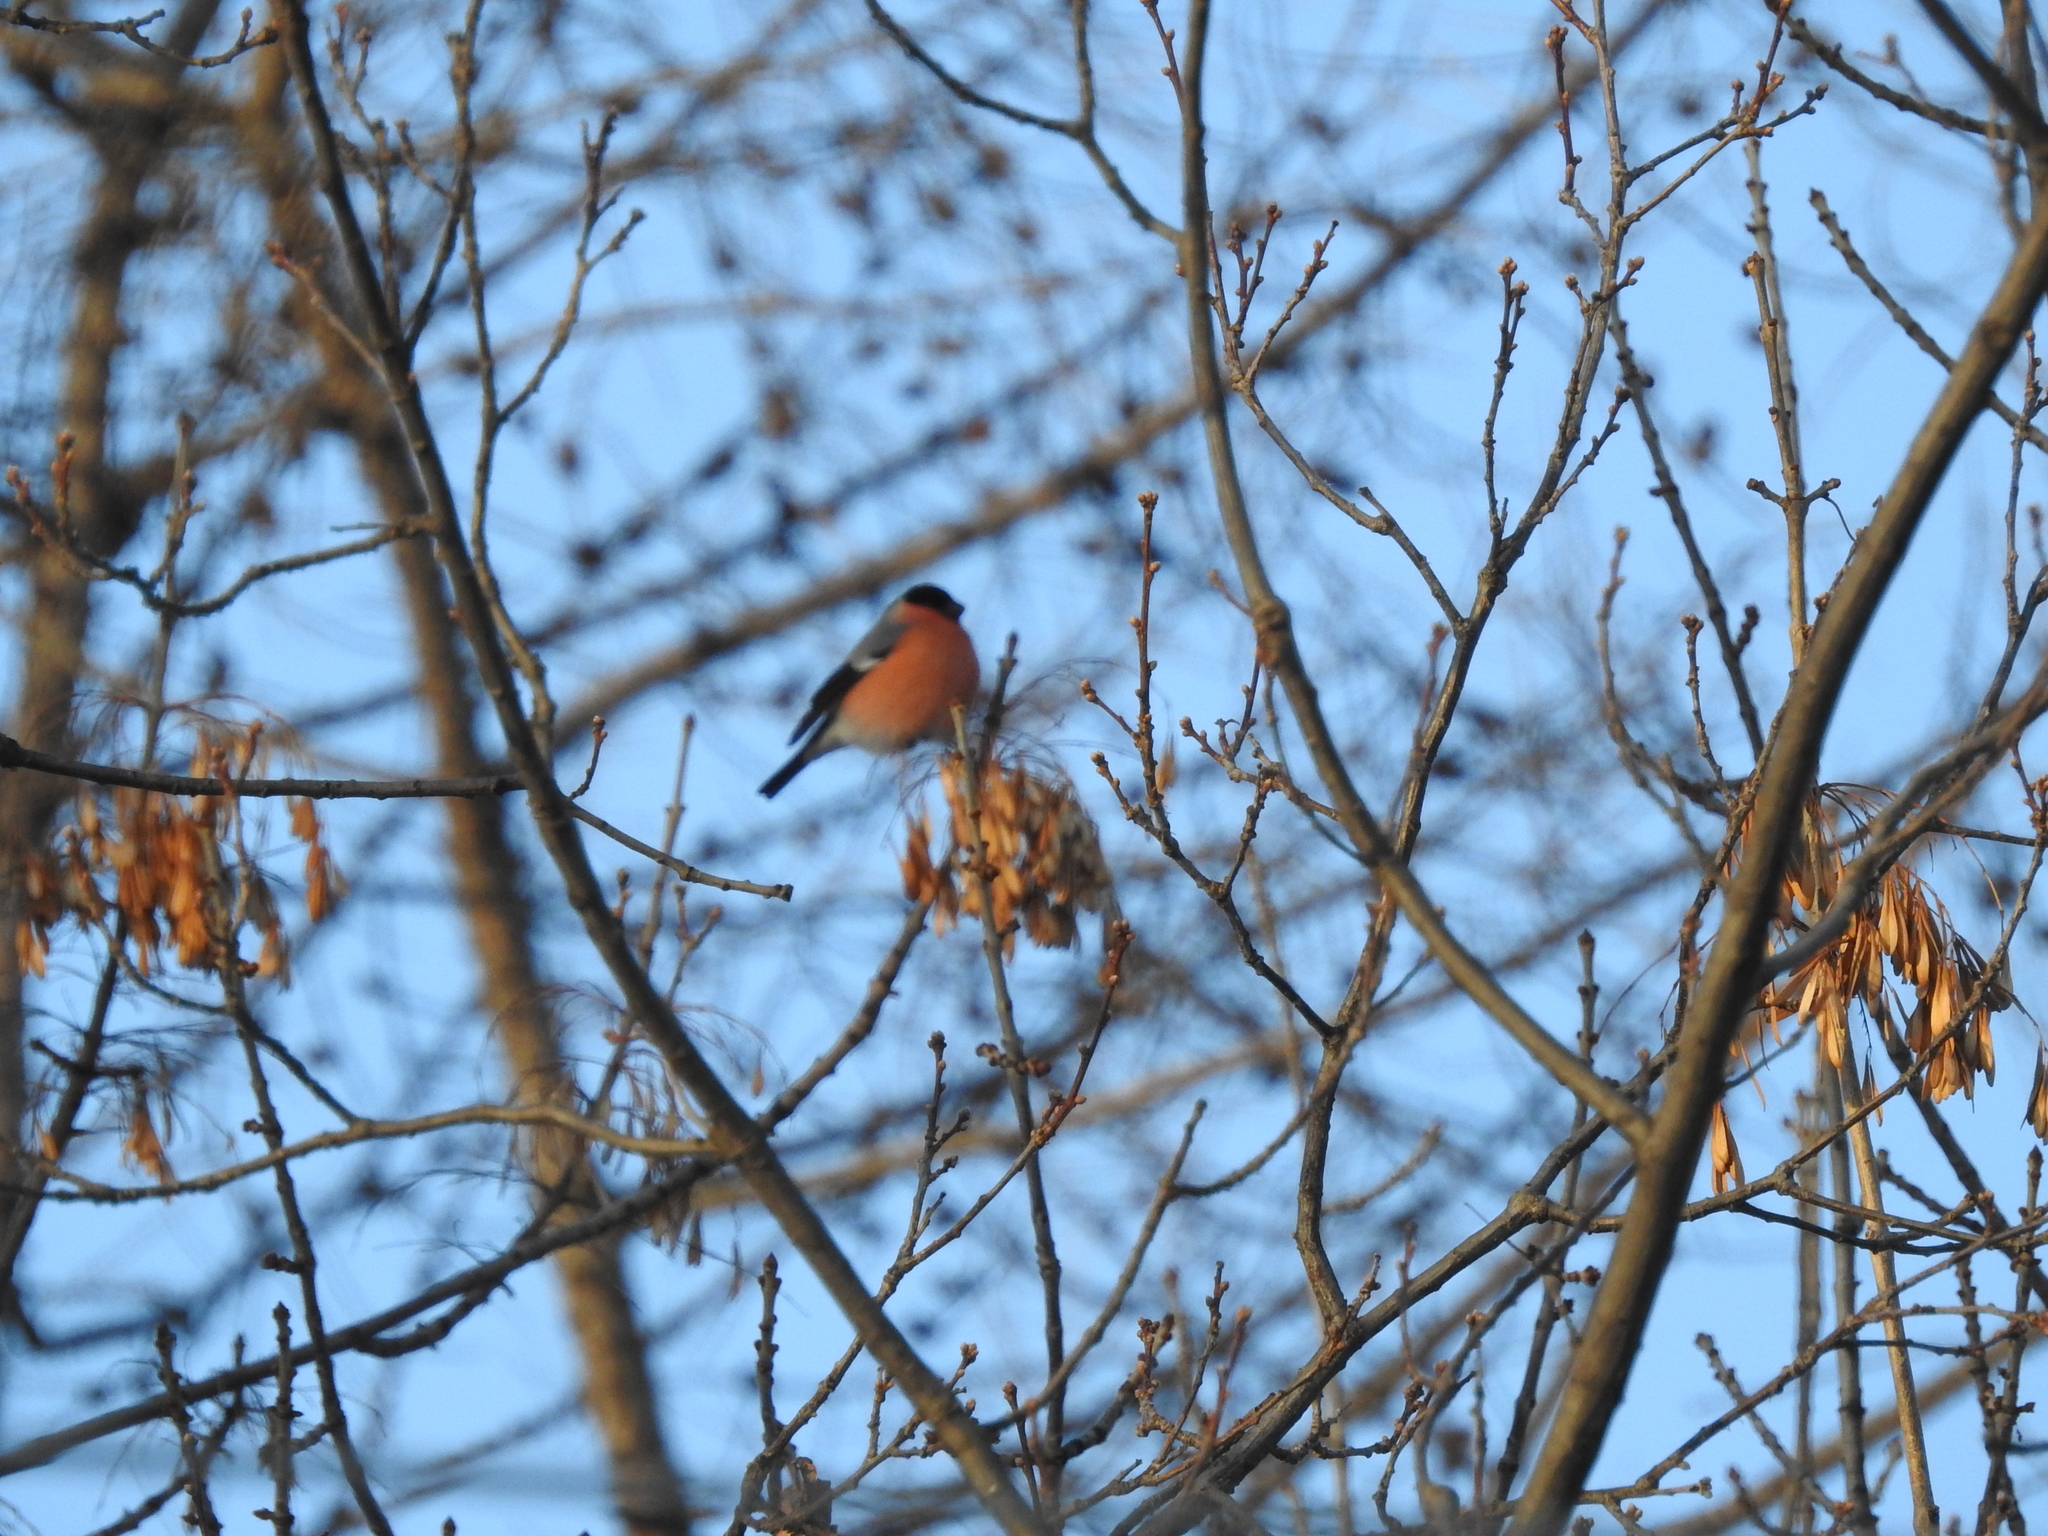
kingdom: Animalia
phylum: Chordata
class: Aves
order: Passeriformes
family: Fringillidae
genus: Pyrrhula
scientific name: Pyrrhula pyrrhula
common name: Eurasian bullfinch
